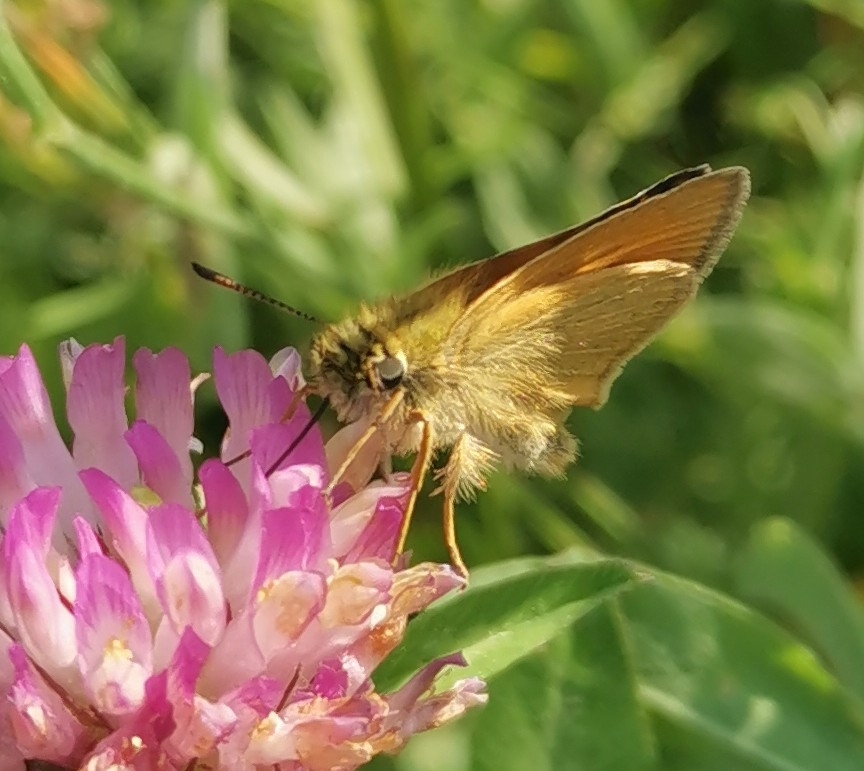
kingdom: Animalia
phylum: Arthropoda
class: Insecta
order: Lepidoptera
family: Hesperiidae
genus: Thymelicus
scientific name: Thymelicus lineola
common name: Essex skipper
